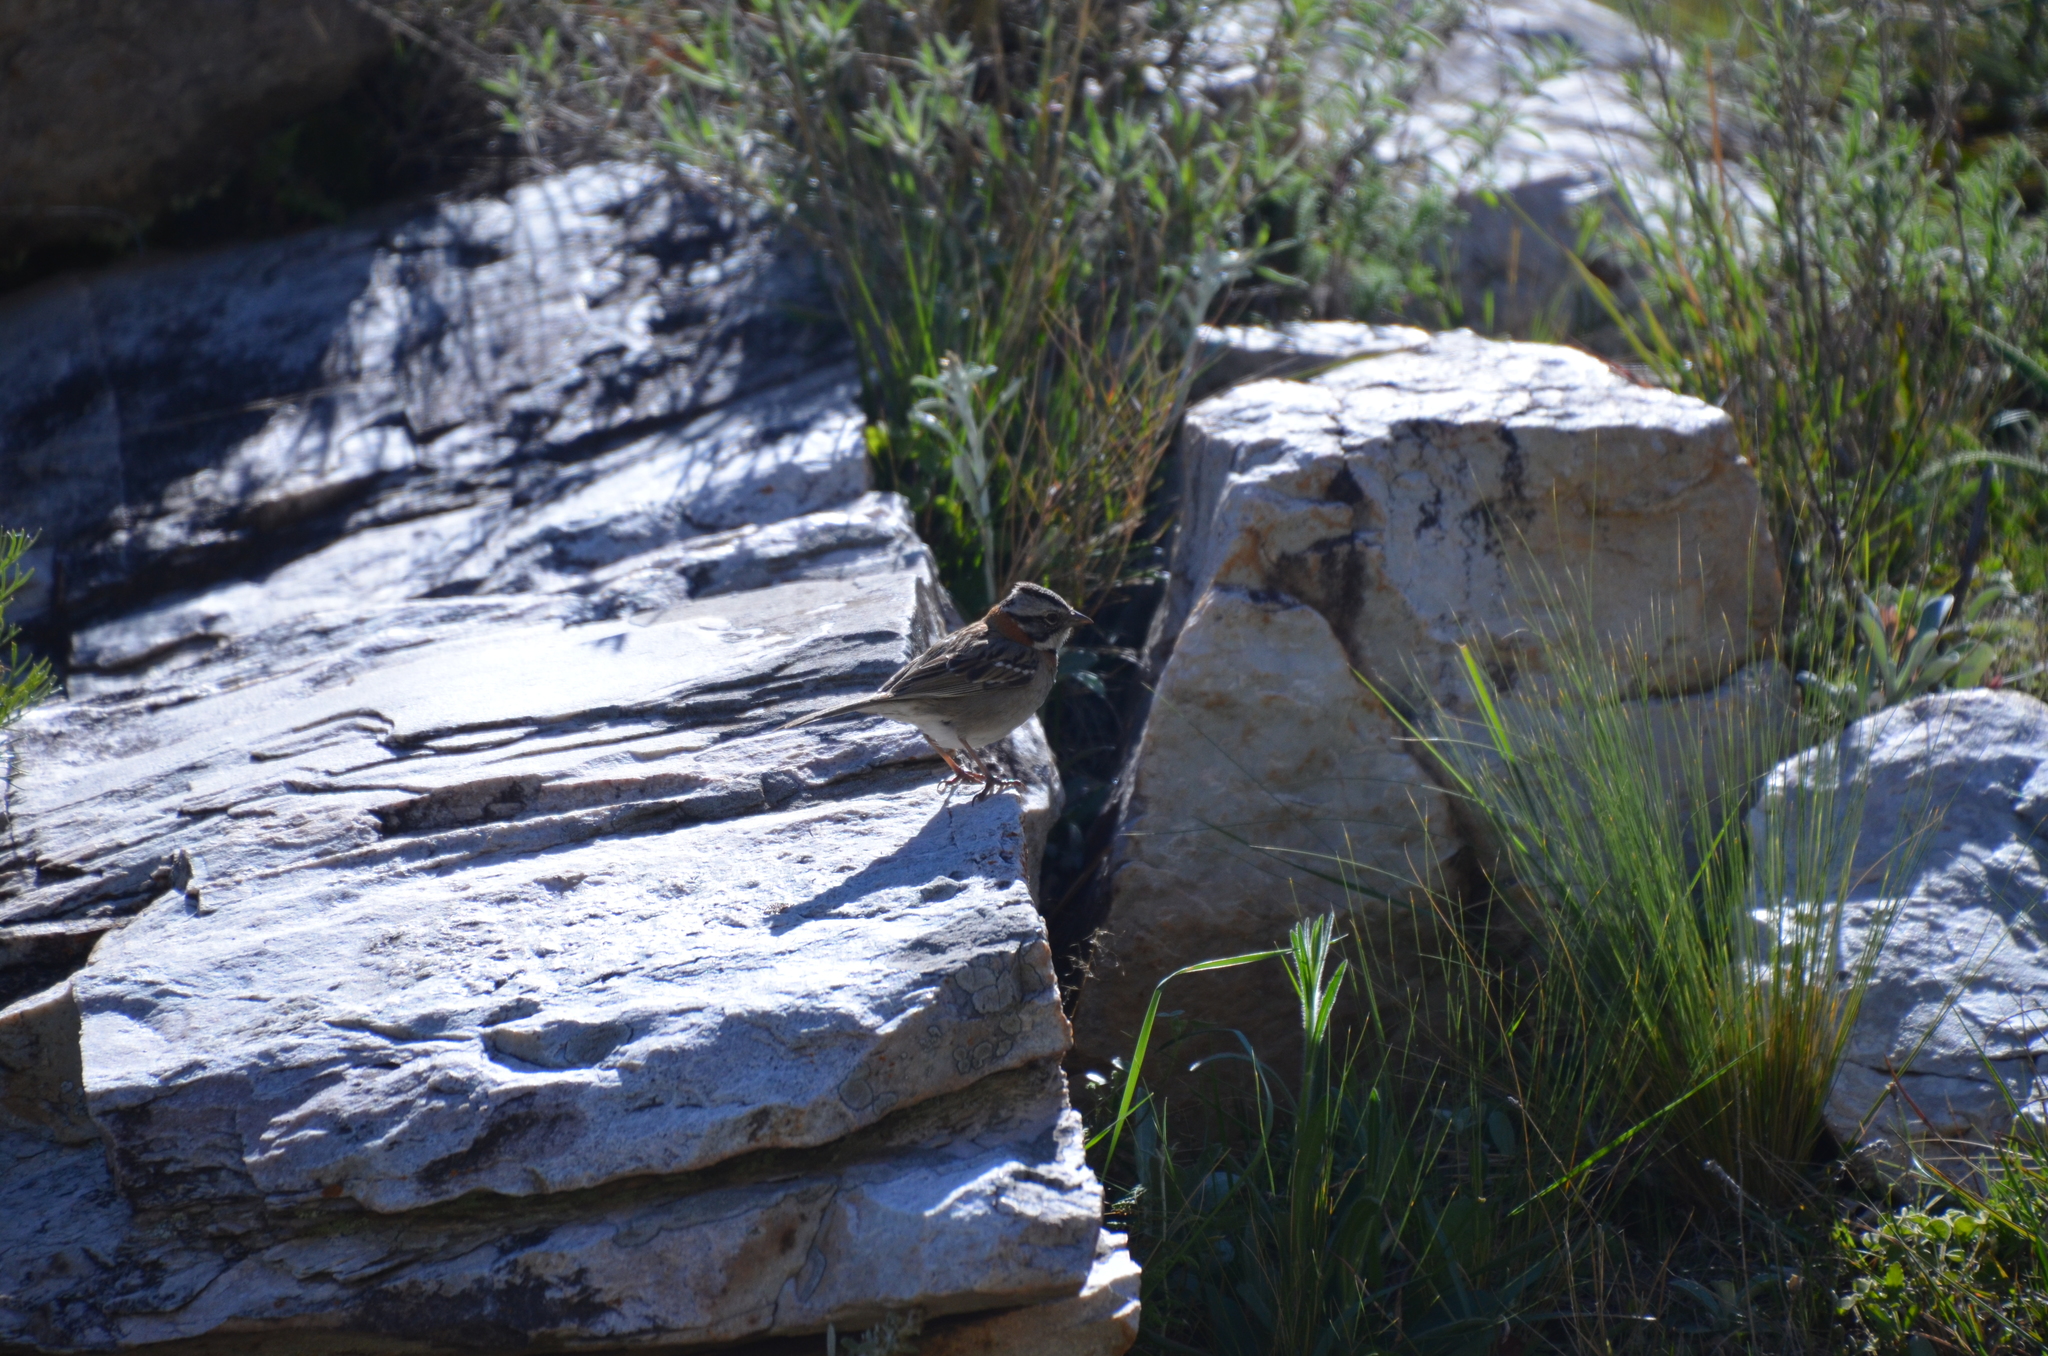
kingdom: Animalia
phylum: Chordata
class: Aves
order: Passeriformes
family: Passerellidae
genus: Zonotrichia
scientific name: Zonotrichia capensis
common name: Rufous-collared sparrow
